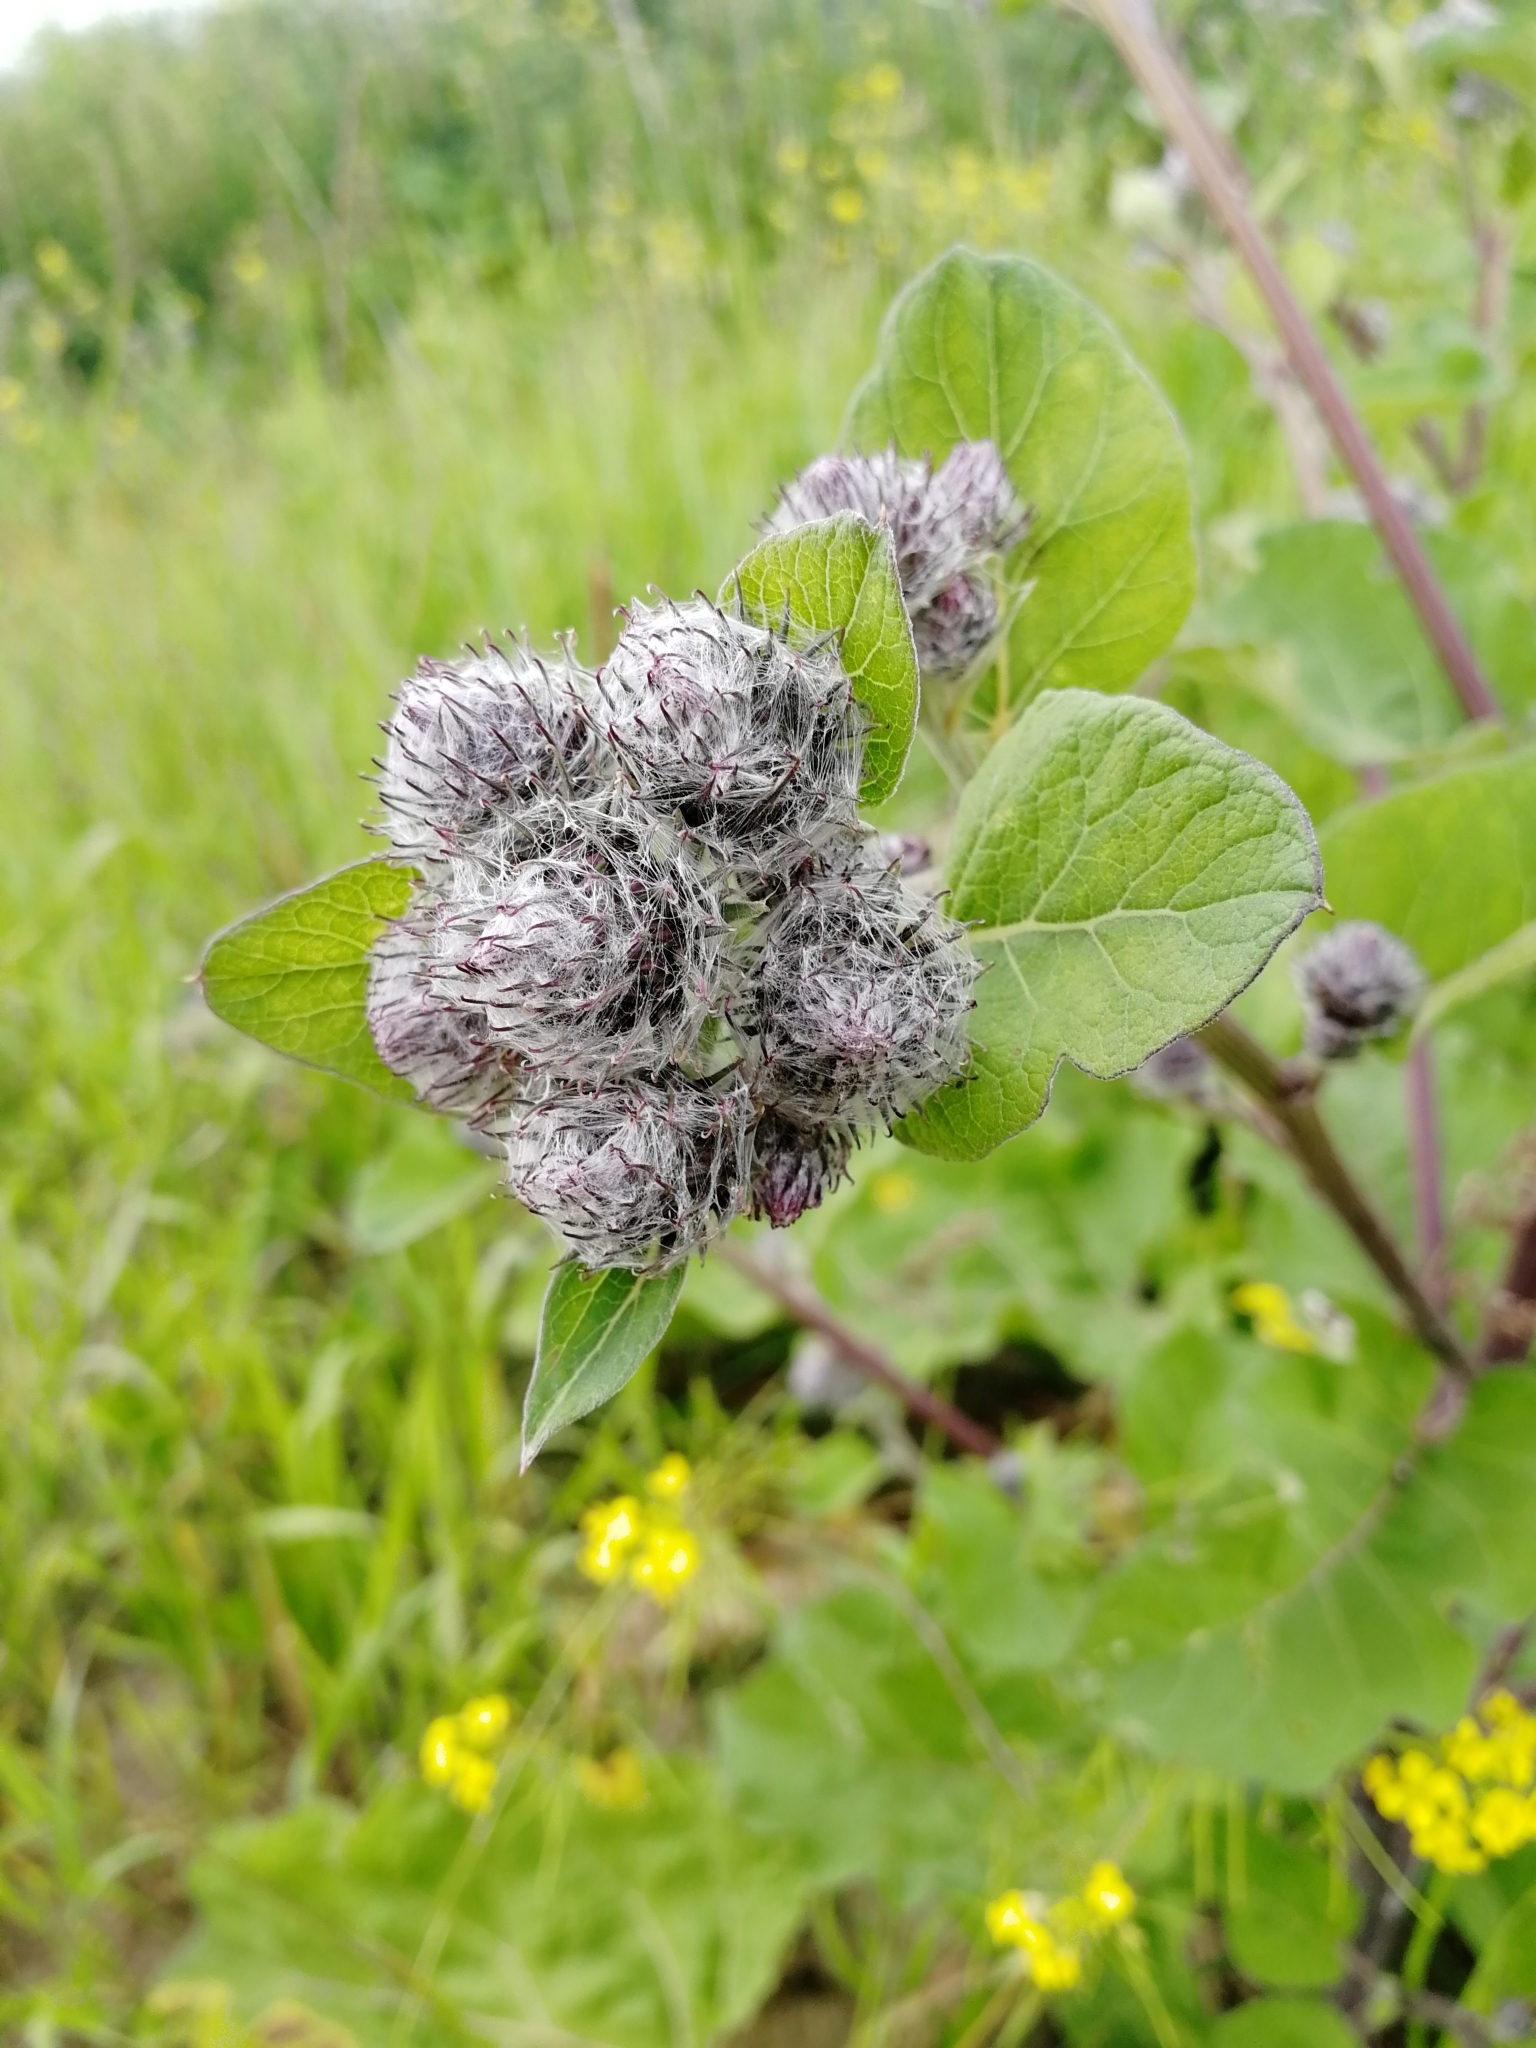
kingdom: Plantae
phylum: Tracheophyta
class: Magnoliopsida
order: Asterales
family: Asteraceae
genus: Arctium
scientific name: Arctium tomentosum
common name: Woolly burdock
